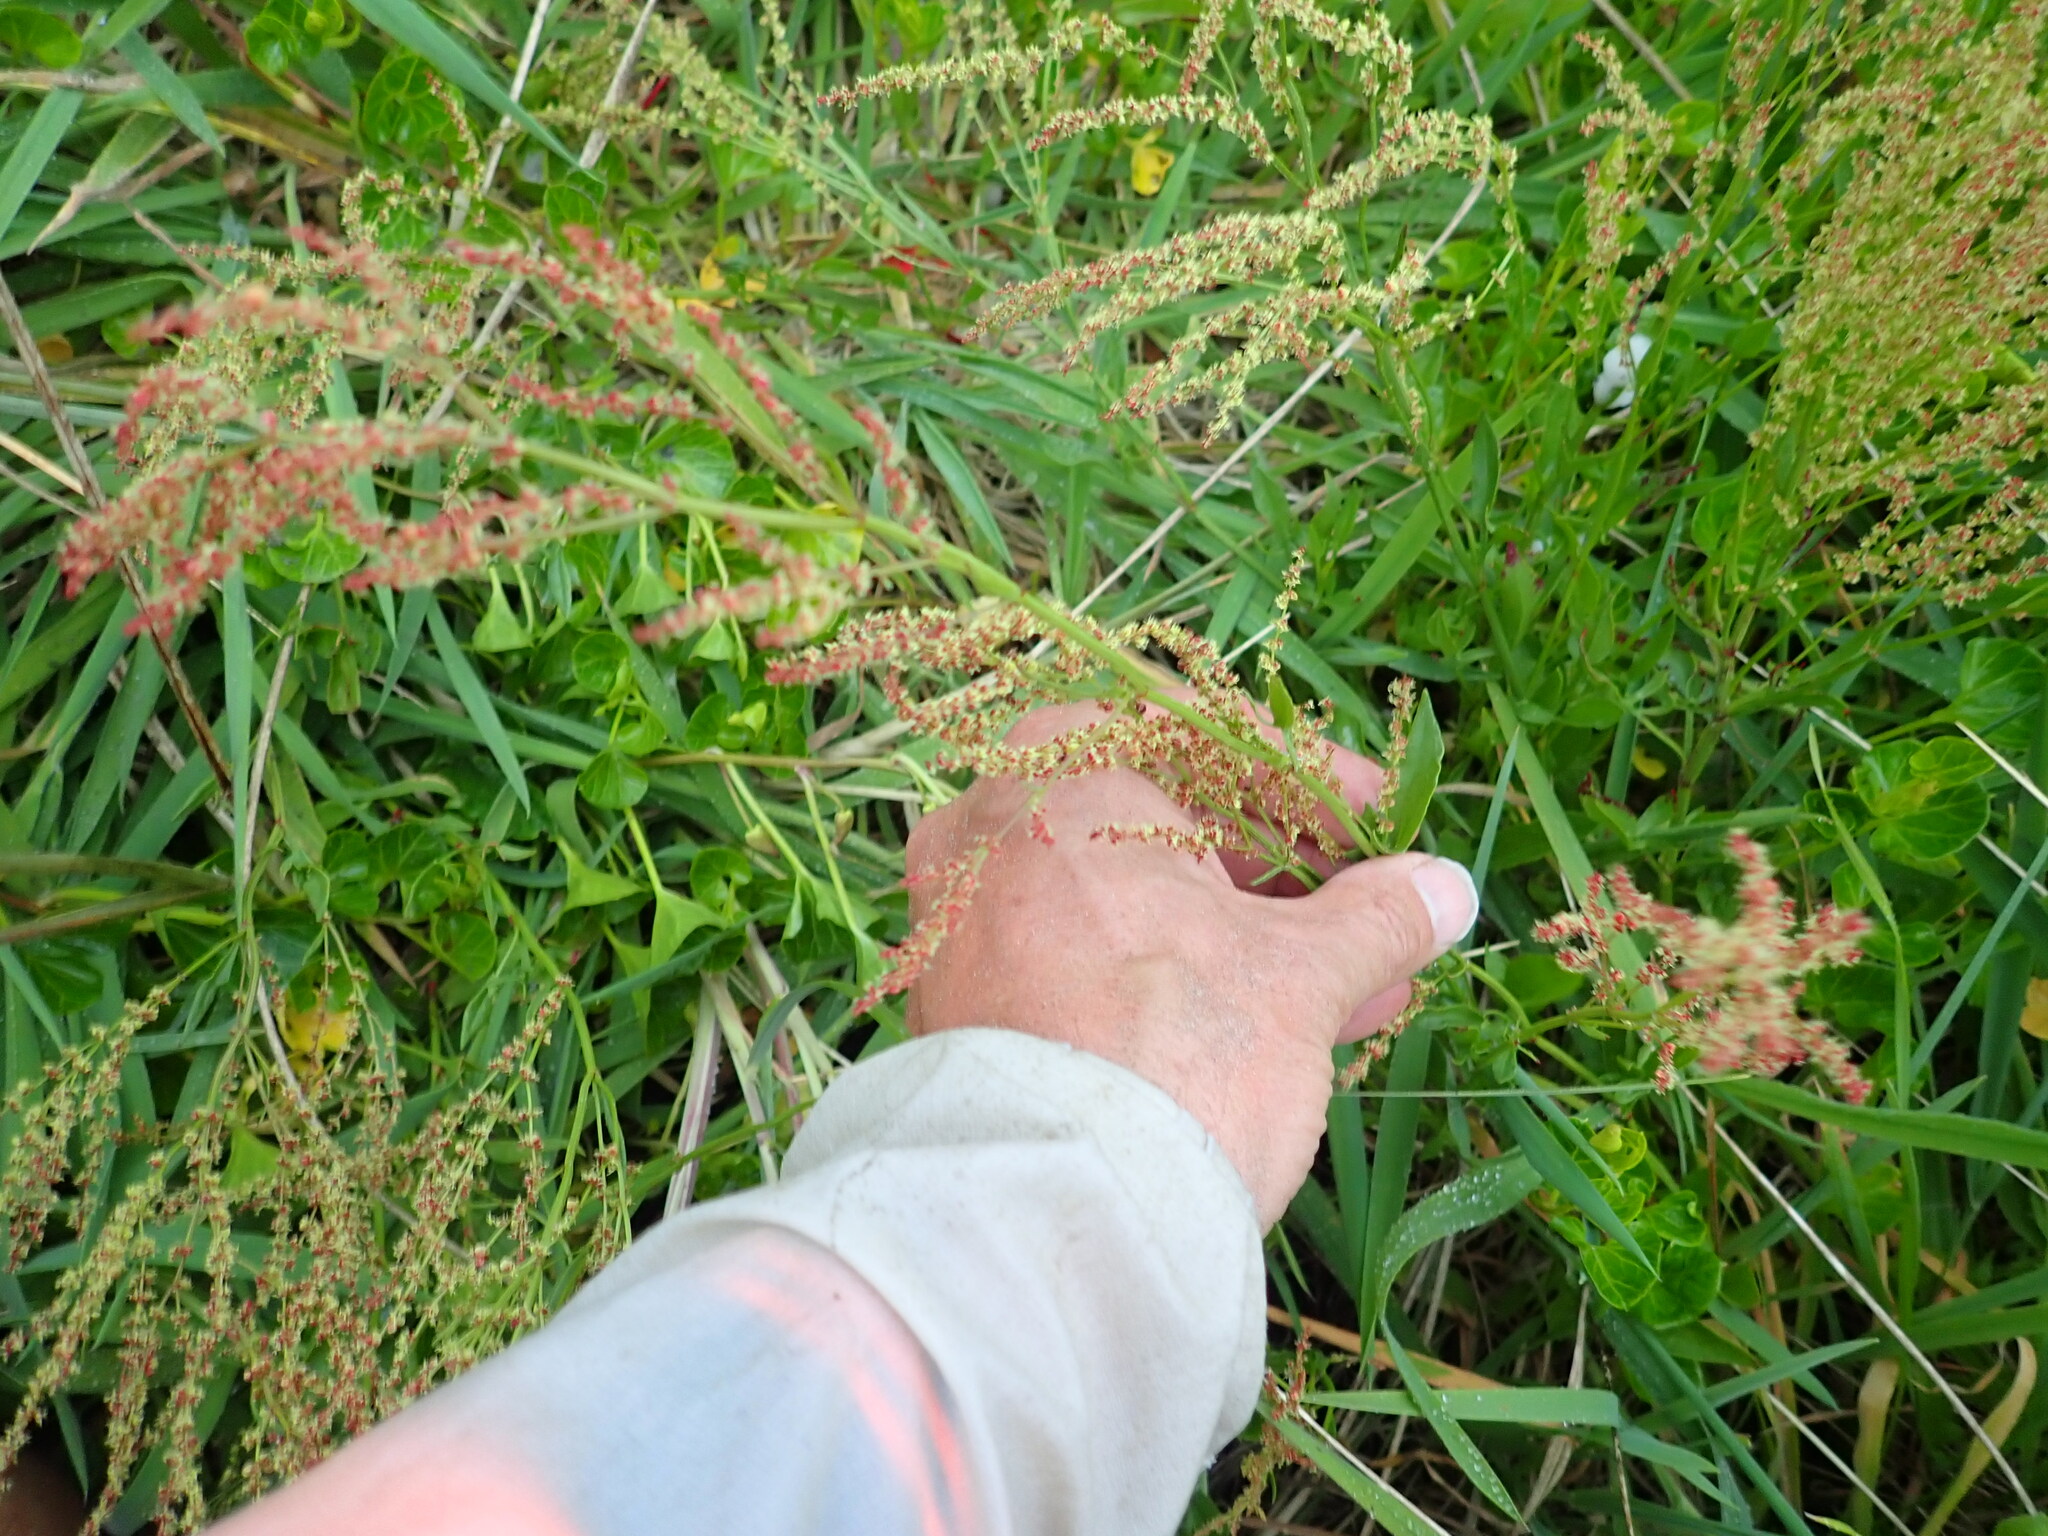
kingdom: Plantae
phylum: Tracheophyta
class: Magnoliopsida
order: Caryophyllales
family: Polygonaceae
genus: Rumex
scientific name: Rumex acetosella
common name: Common sheep sorrel
